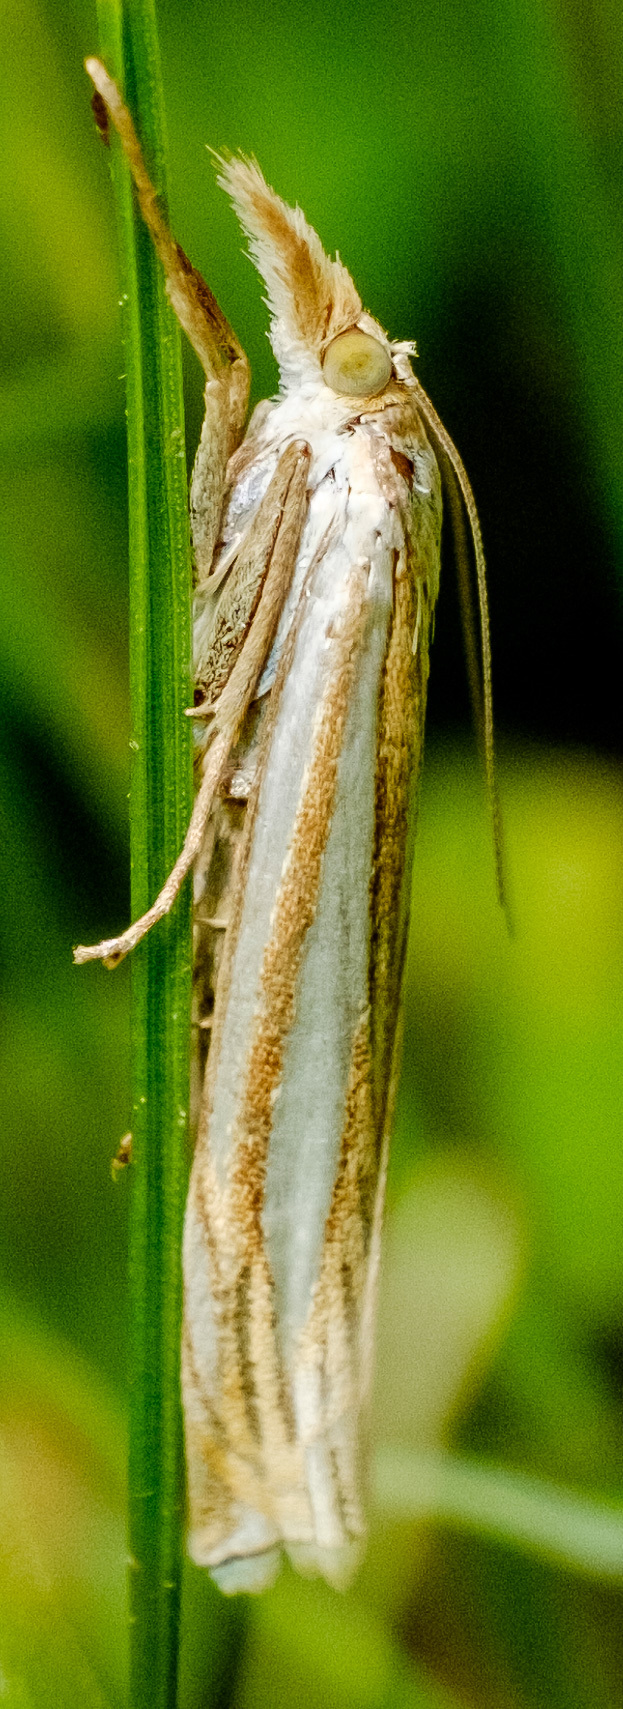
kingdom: Animalia
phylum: Arthropoda
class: Insecta
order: Lepidoptera
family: Crambidae
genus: Crambus
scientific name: Crambus laqueatellus
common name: Eastern grass-veneer
